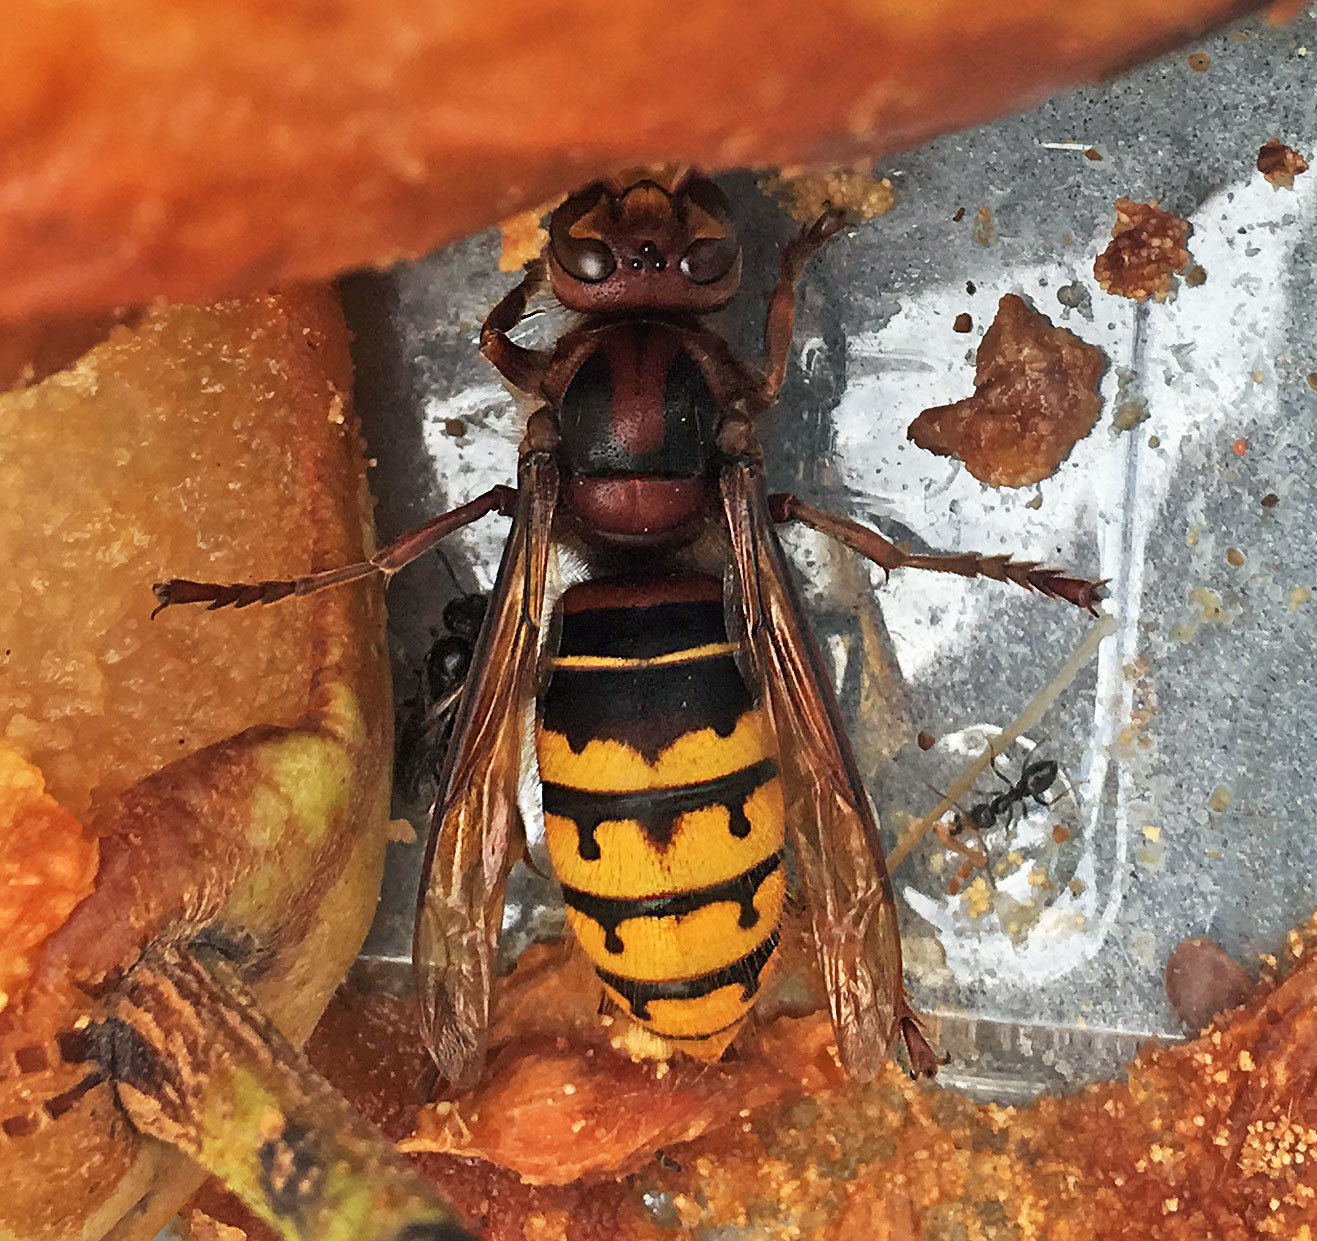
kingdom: Animalia
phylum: Arthropoda
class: Insecta
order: Hymenoptera
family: Vespidae
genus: Vespa
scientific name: Vespa crabro
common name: Hornet
